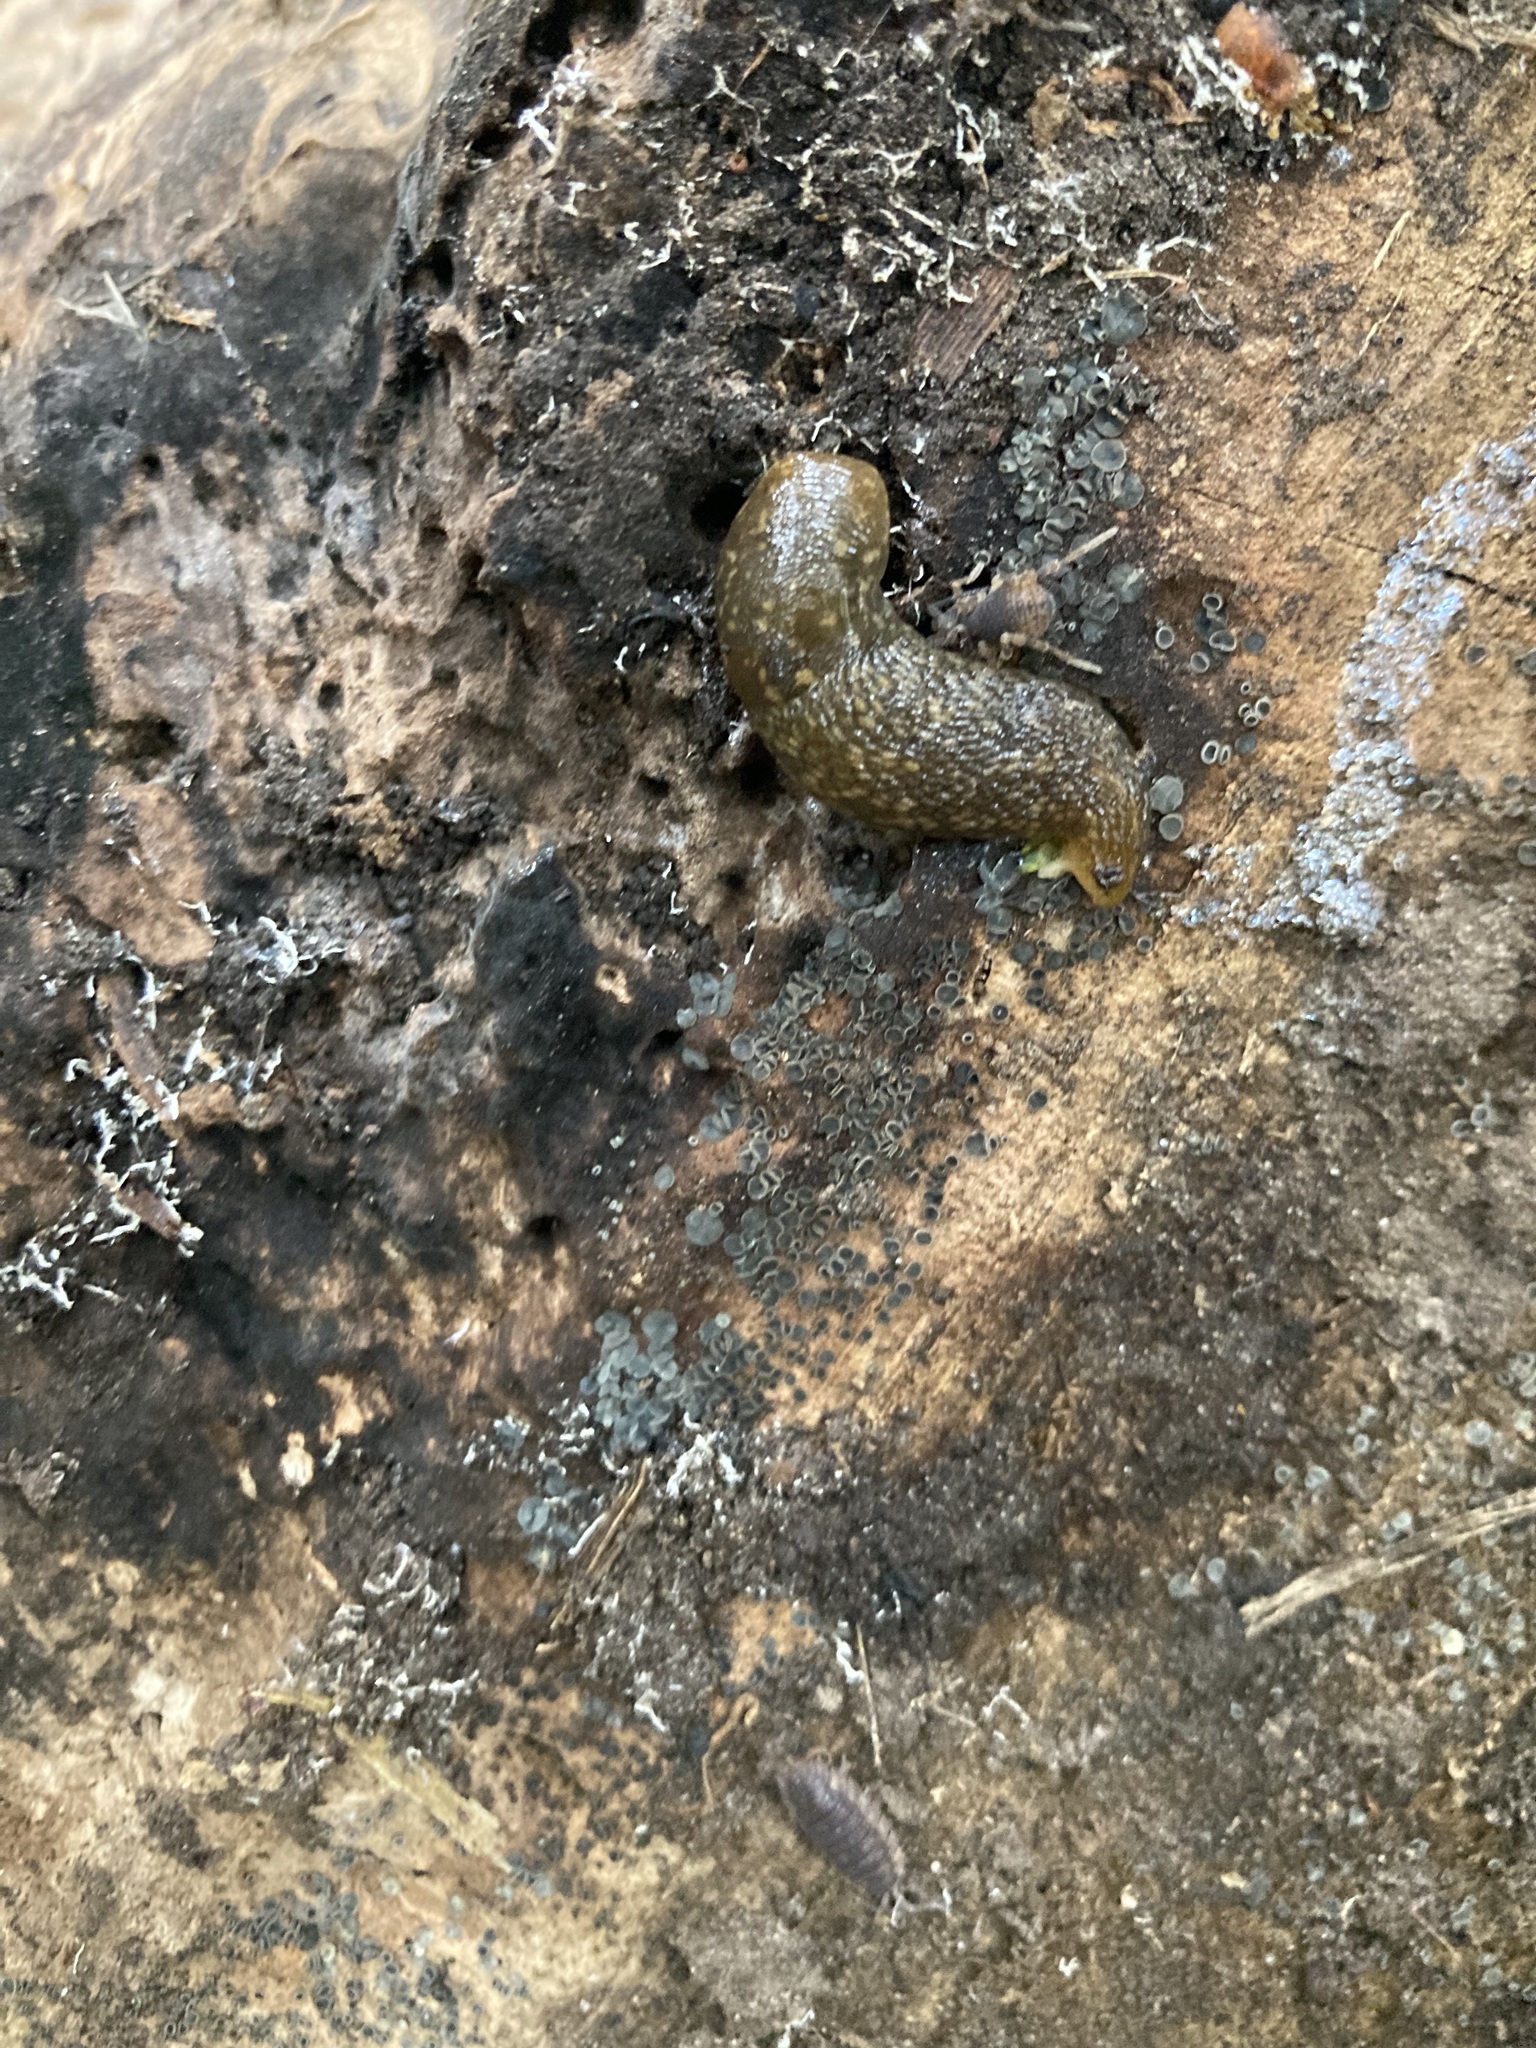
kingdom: Animalia
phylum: Mollusca
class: Gastropoda
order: Stylommatophora
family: Limacidae
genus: Limacus
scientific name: Limacus flavus
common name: Yellow gardenslug
